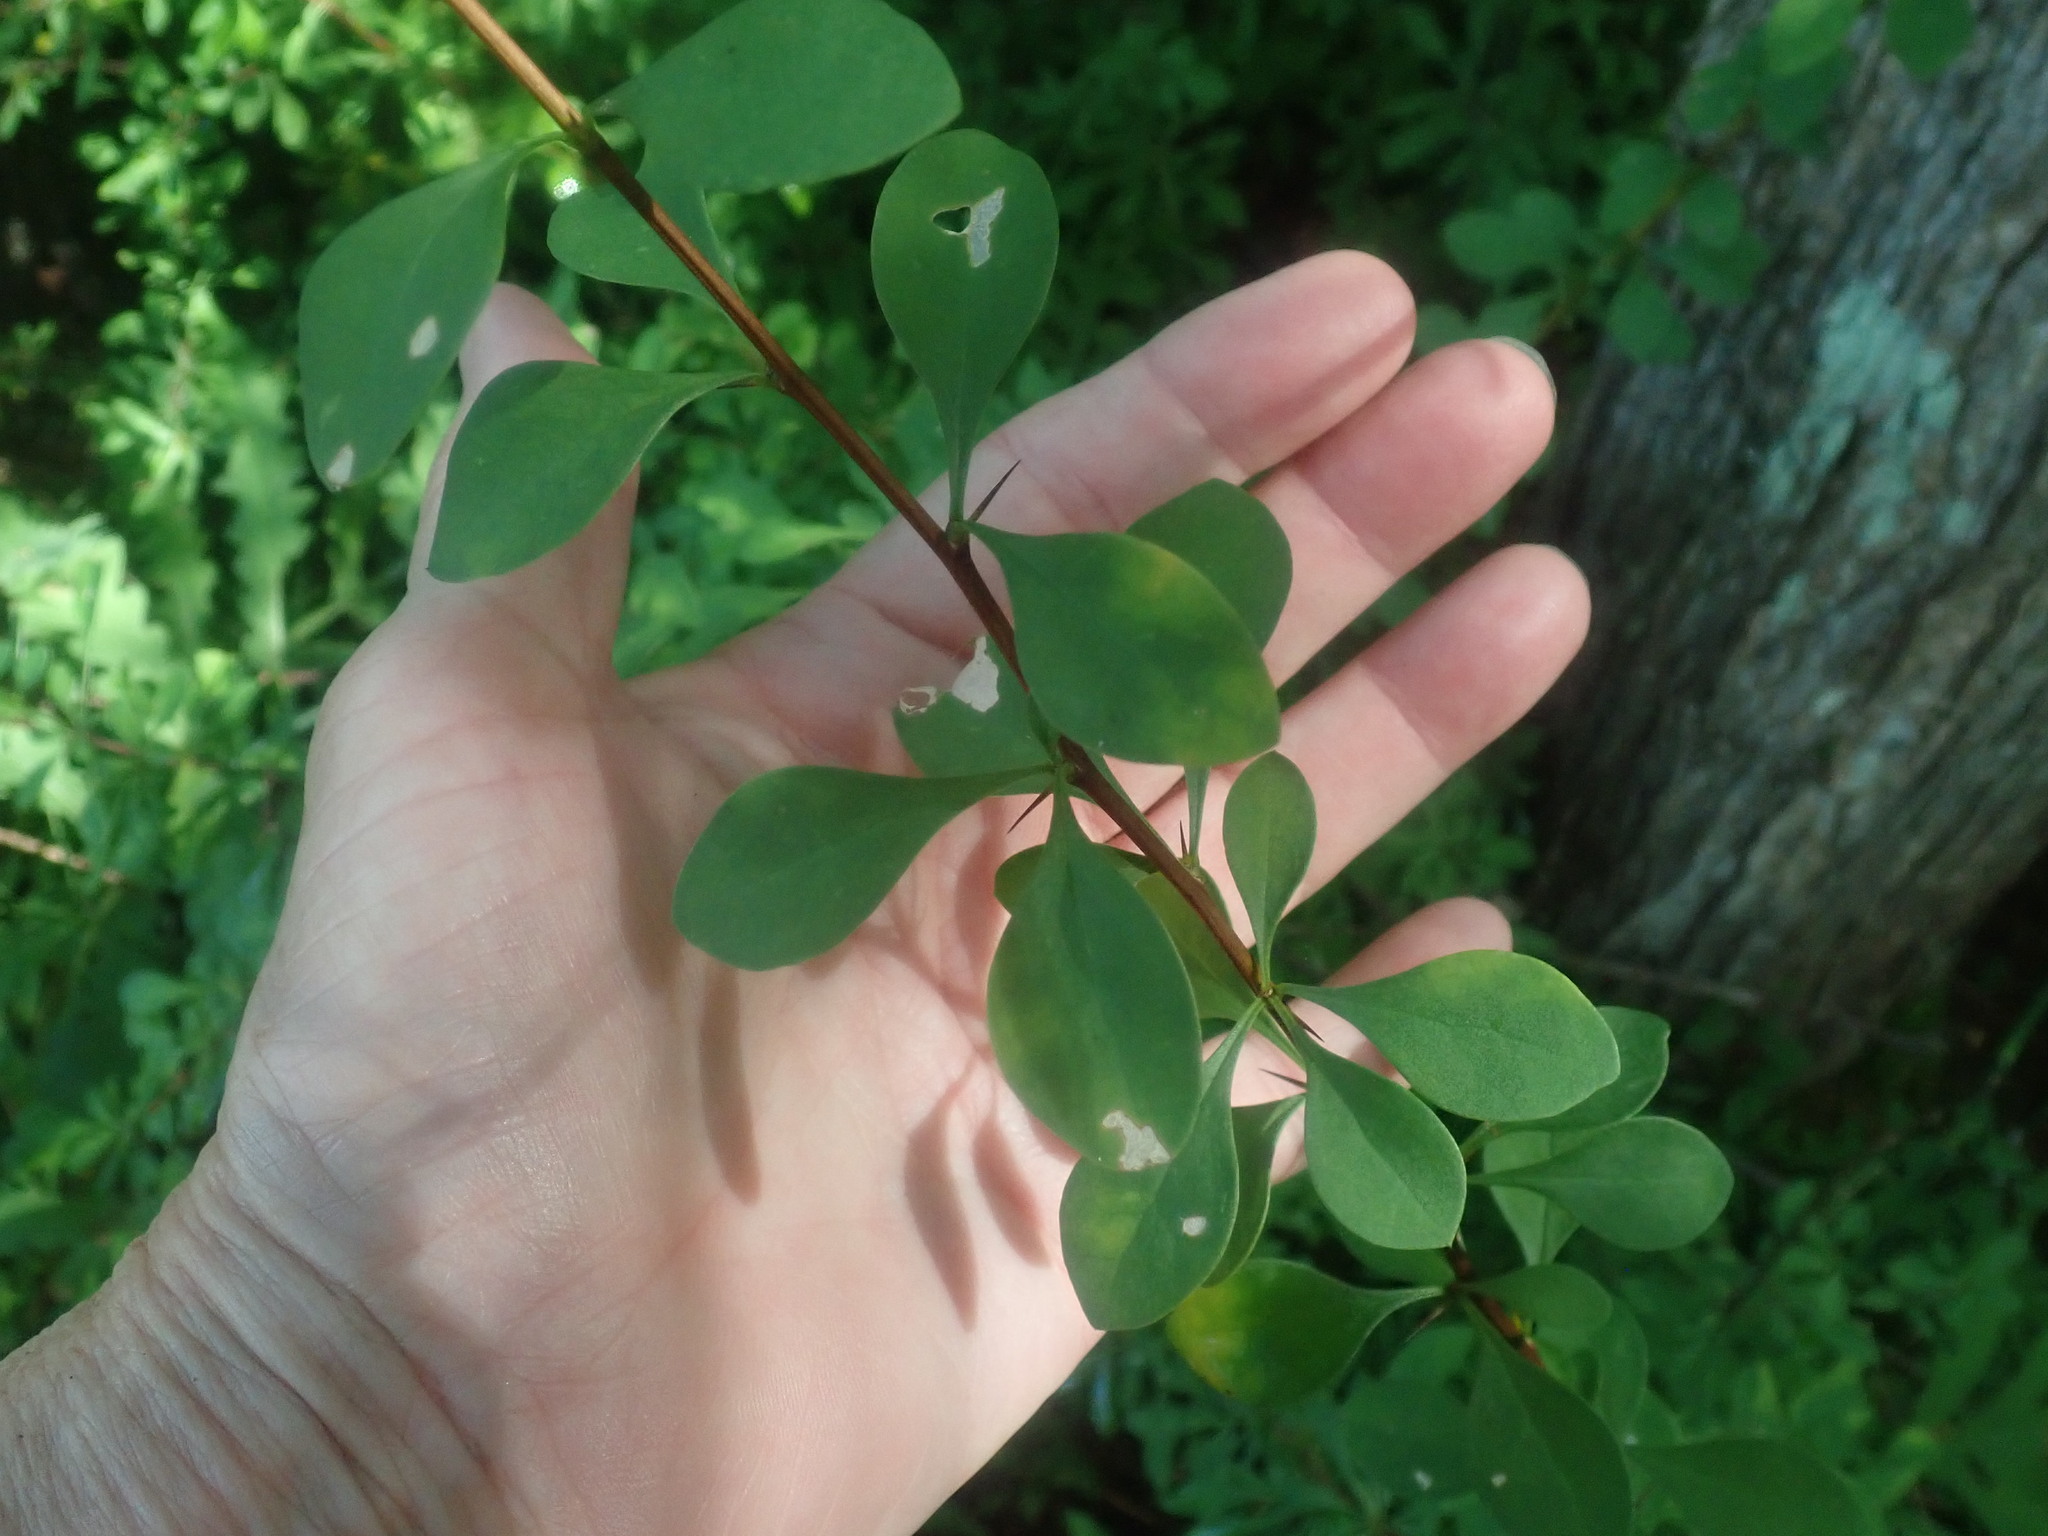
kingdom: Plantae
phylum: Tracheophyta
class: Magnoliopsida
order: Ranunculales
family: Berberidaceae
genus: Berberis
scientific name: Berberis thunbergii
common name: Japanese barberry
